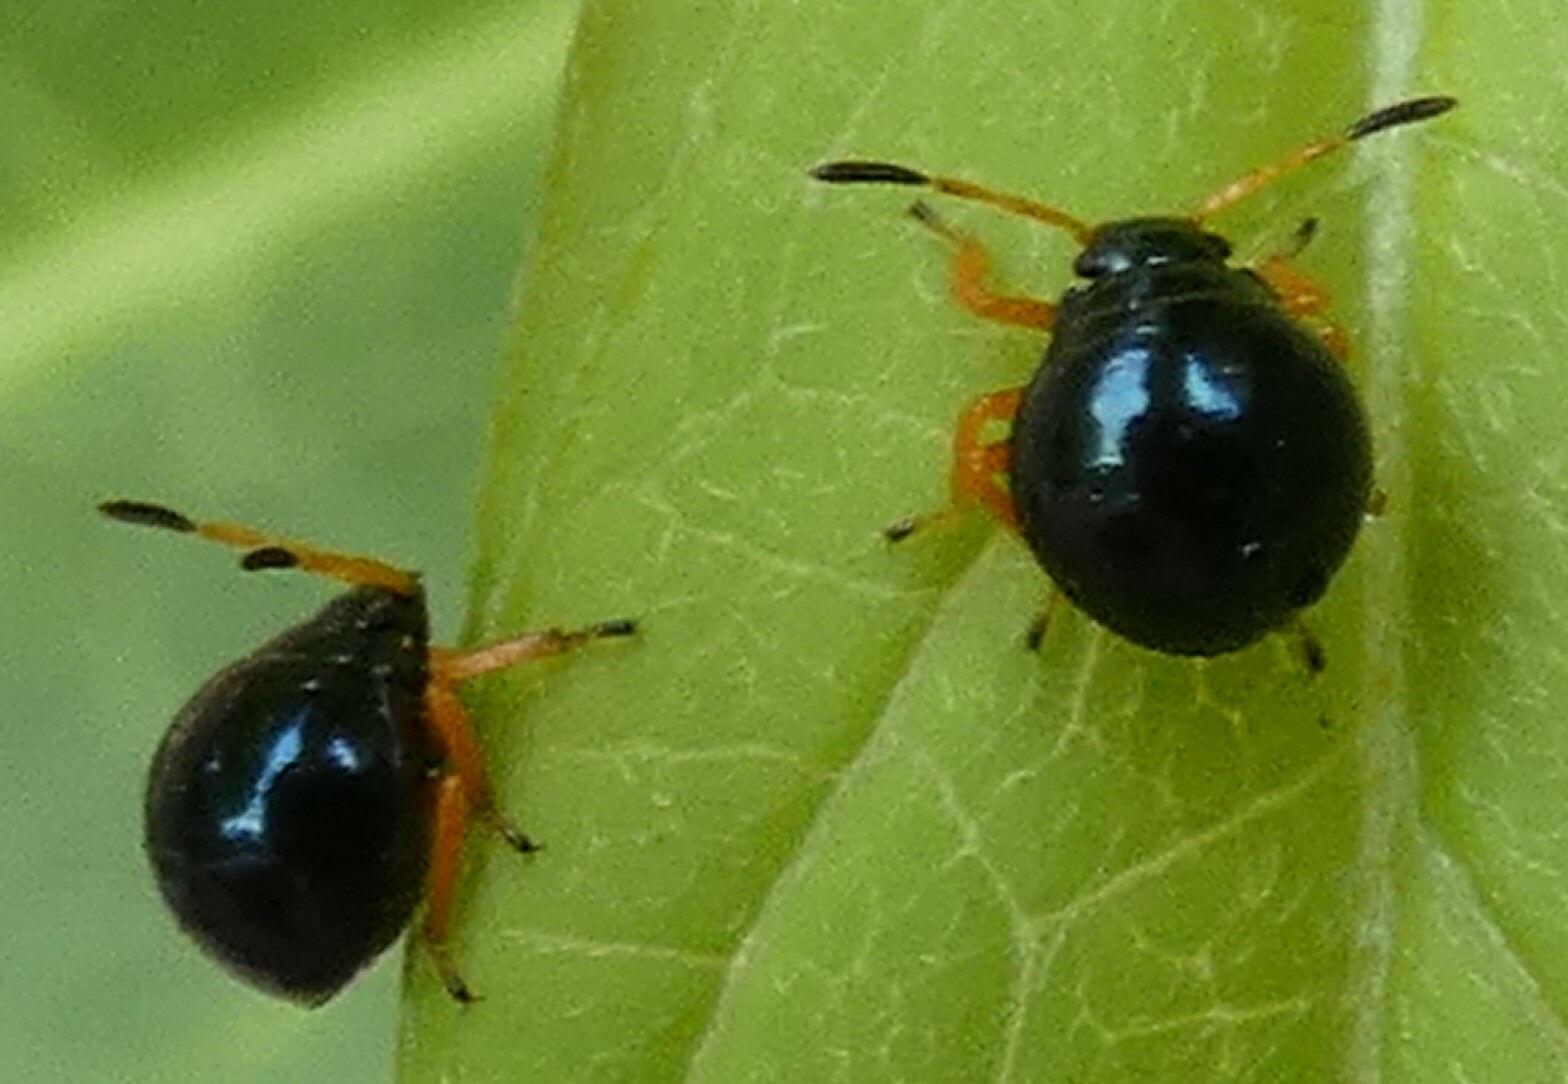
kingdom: Animalia
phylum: Arthropoda
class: Insecta
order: Hemiptera
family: Pentatomidae
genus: Stiretrus
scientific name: Stiretrus anchorago
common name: Anchor stink bug
